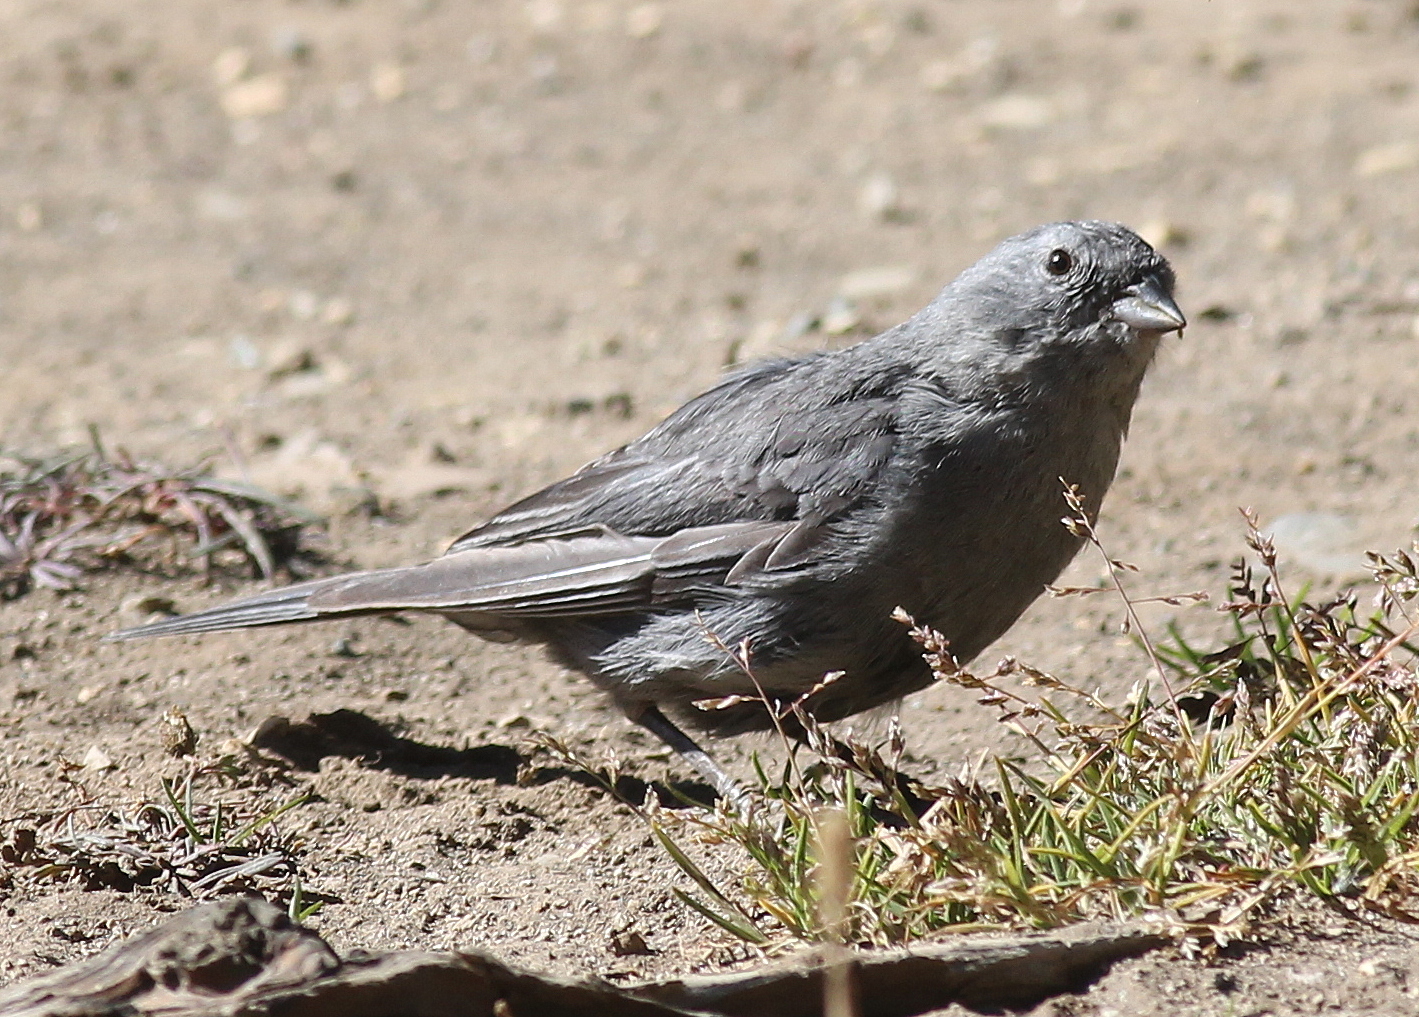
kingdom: Animalia
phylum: Chordata
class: Aves
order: Passeriformes
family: Thraupidae
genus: Geospizopsis
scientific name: Geospizopsis unicolor
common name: Plumbeous sierra-finch
